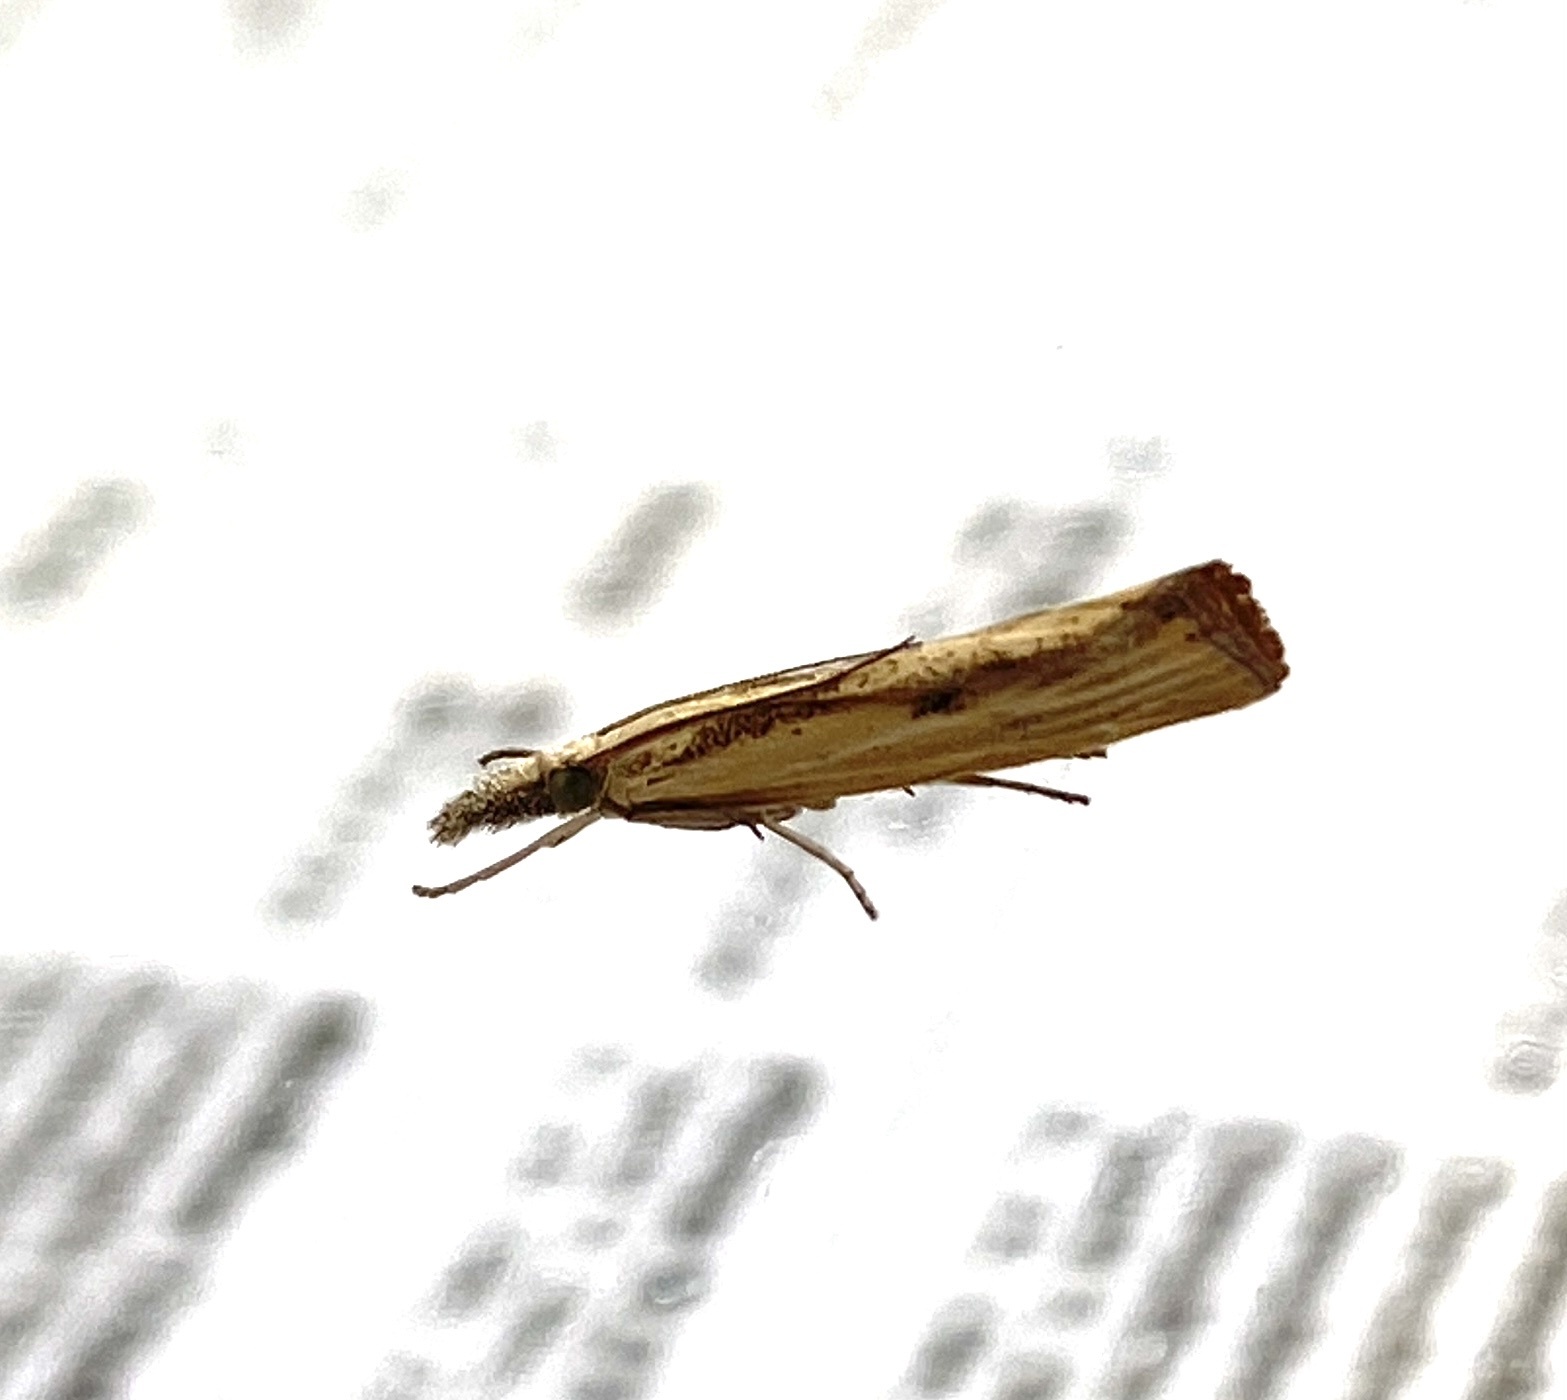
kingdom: Animalia
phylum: Arthropoda
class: Insecta
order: Lepidoptera
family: Crambidae
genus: Agriphila
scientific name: Agriphila inquinatella
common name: Barred grass-veneer
